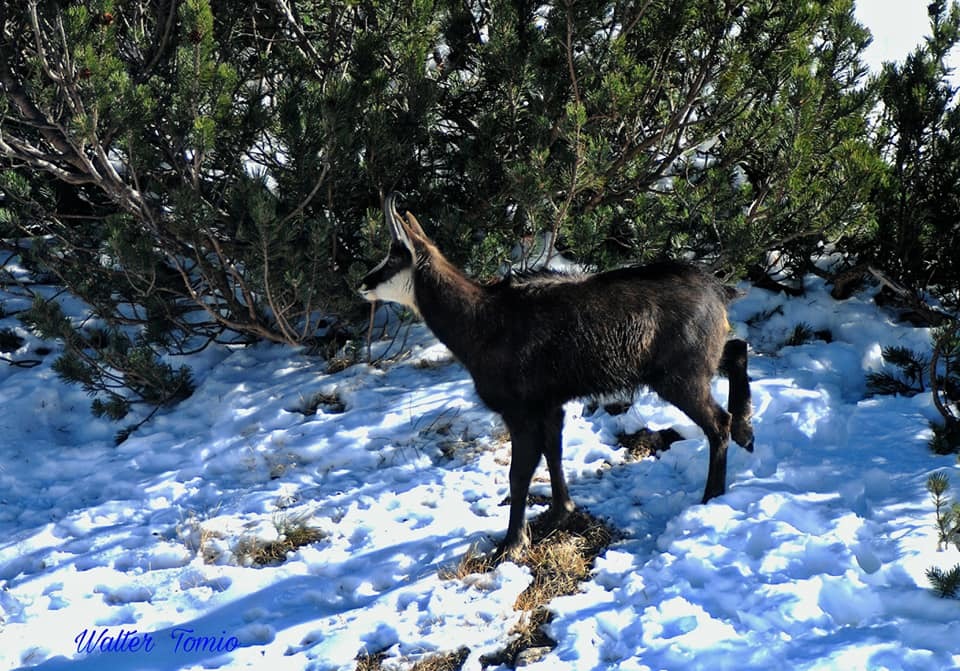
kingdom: Animalia
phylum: Chordata
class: Mammalia
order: Artiodactyla
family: Bovidae
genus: Rupicapra
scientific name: Rupicapra rupicapra
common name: Chamois
